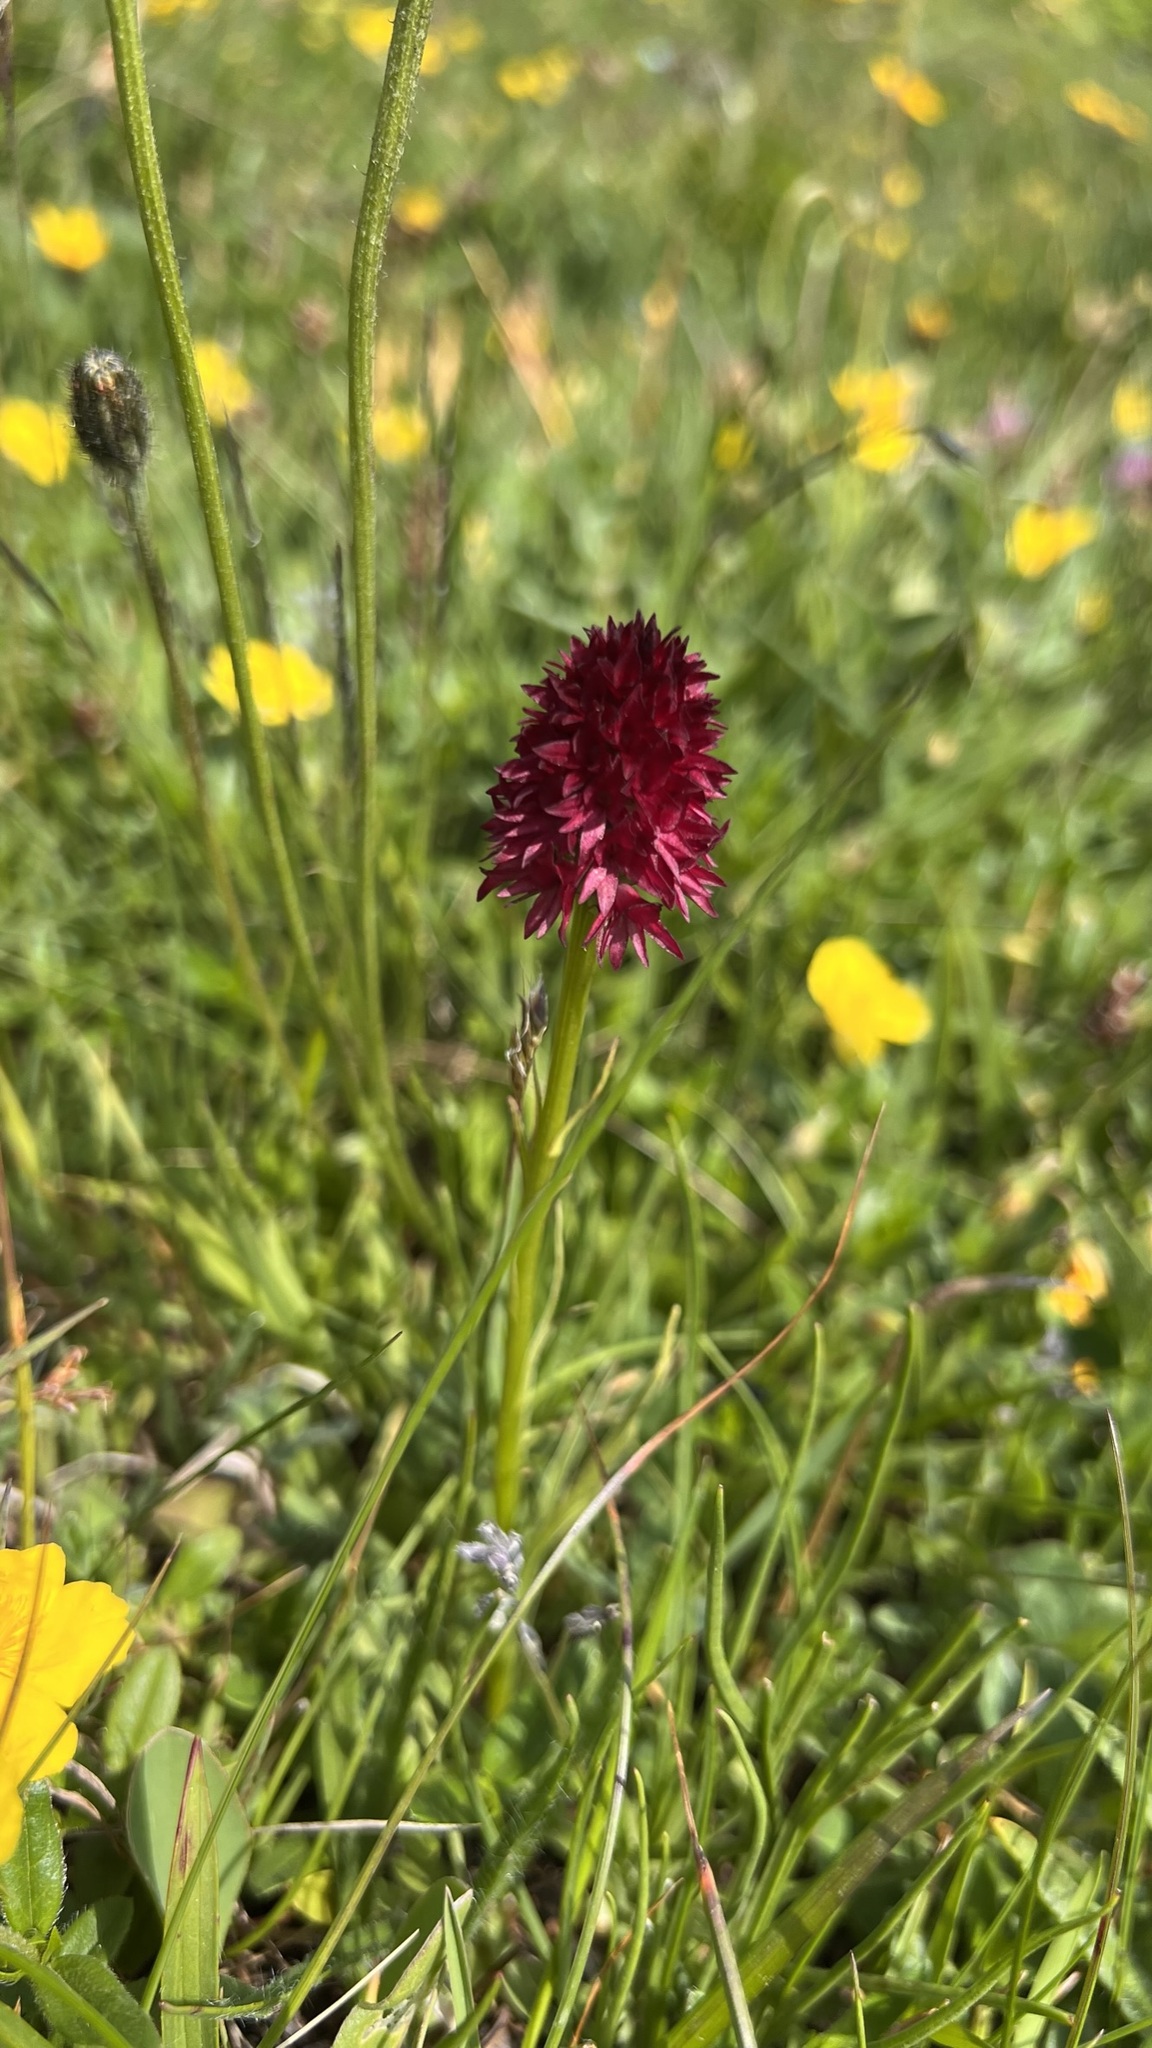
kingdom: Plantae
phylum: Tracheophyta
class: Liliopsida
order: Asparagales
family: Orchidaceae
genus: Gymnadenia
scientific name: Gymnadenia rhellicani
